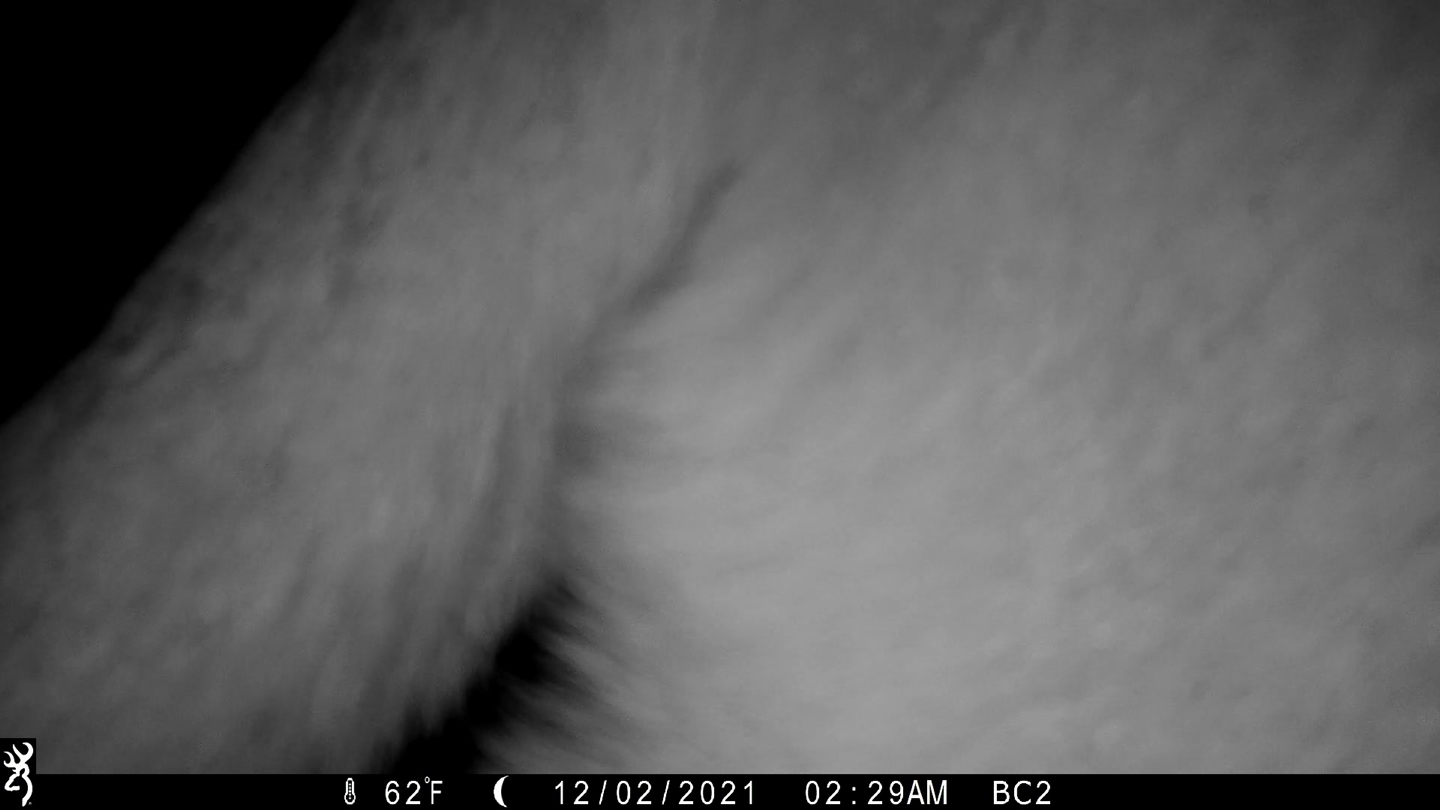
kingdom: Animalia
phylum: Chordata
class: Mammalia
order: Carnivora
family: Felidae
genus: Puma
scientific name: Puma concolor
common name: Puma
